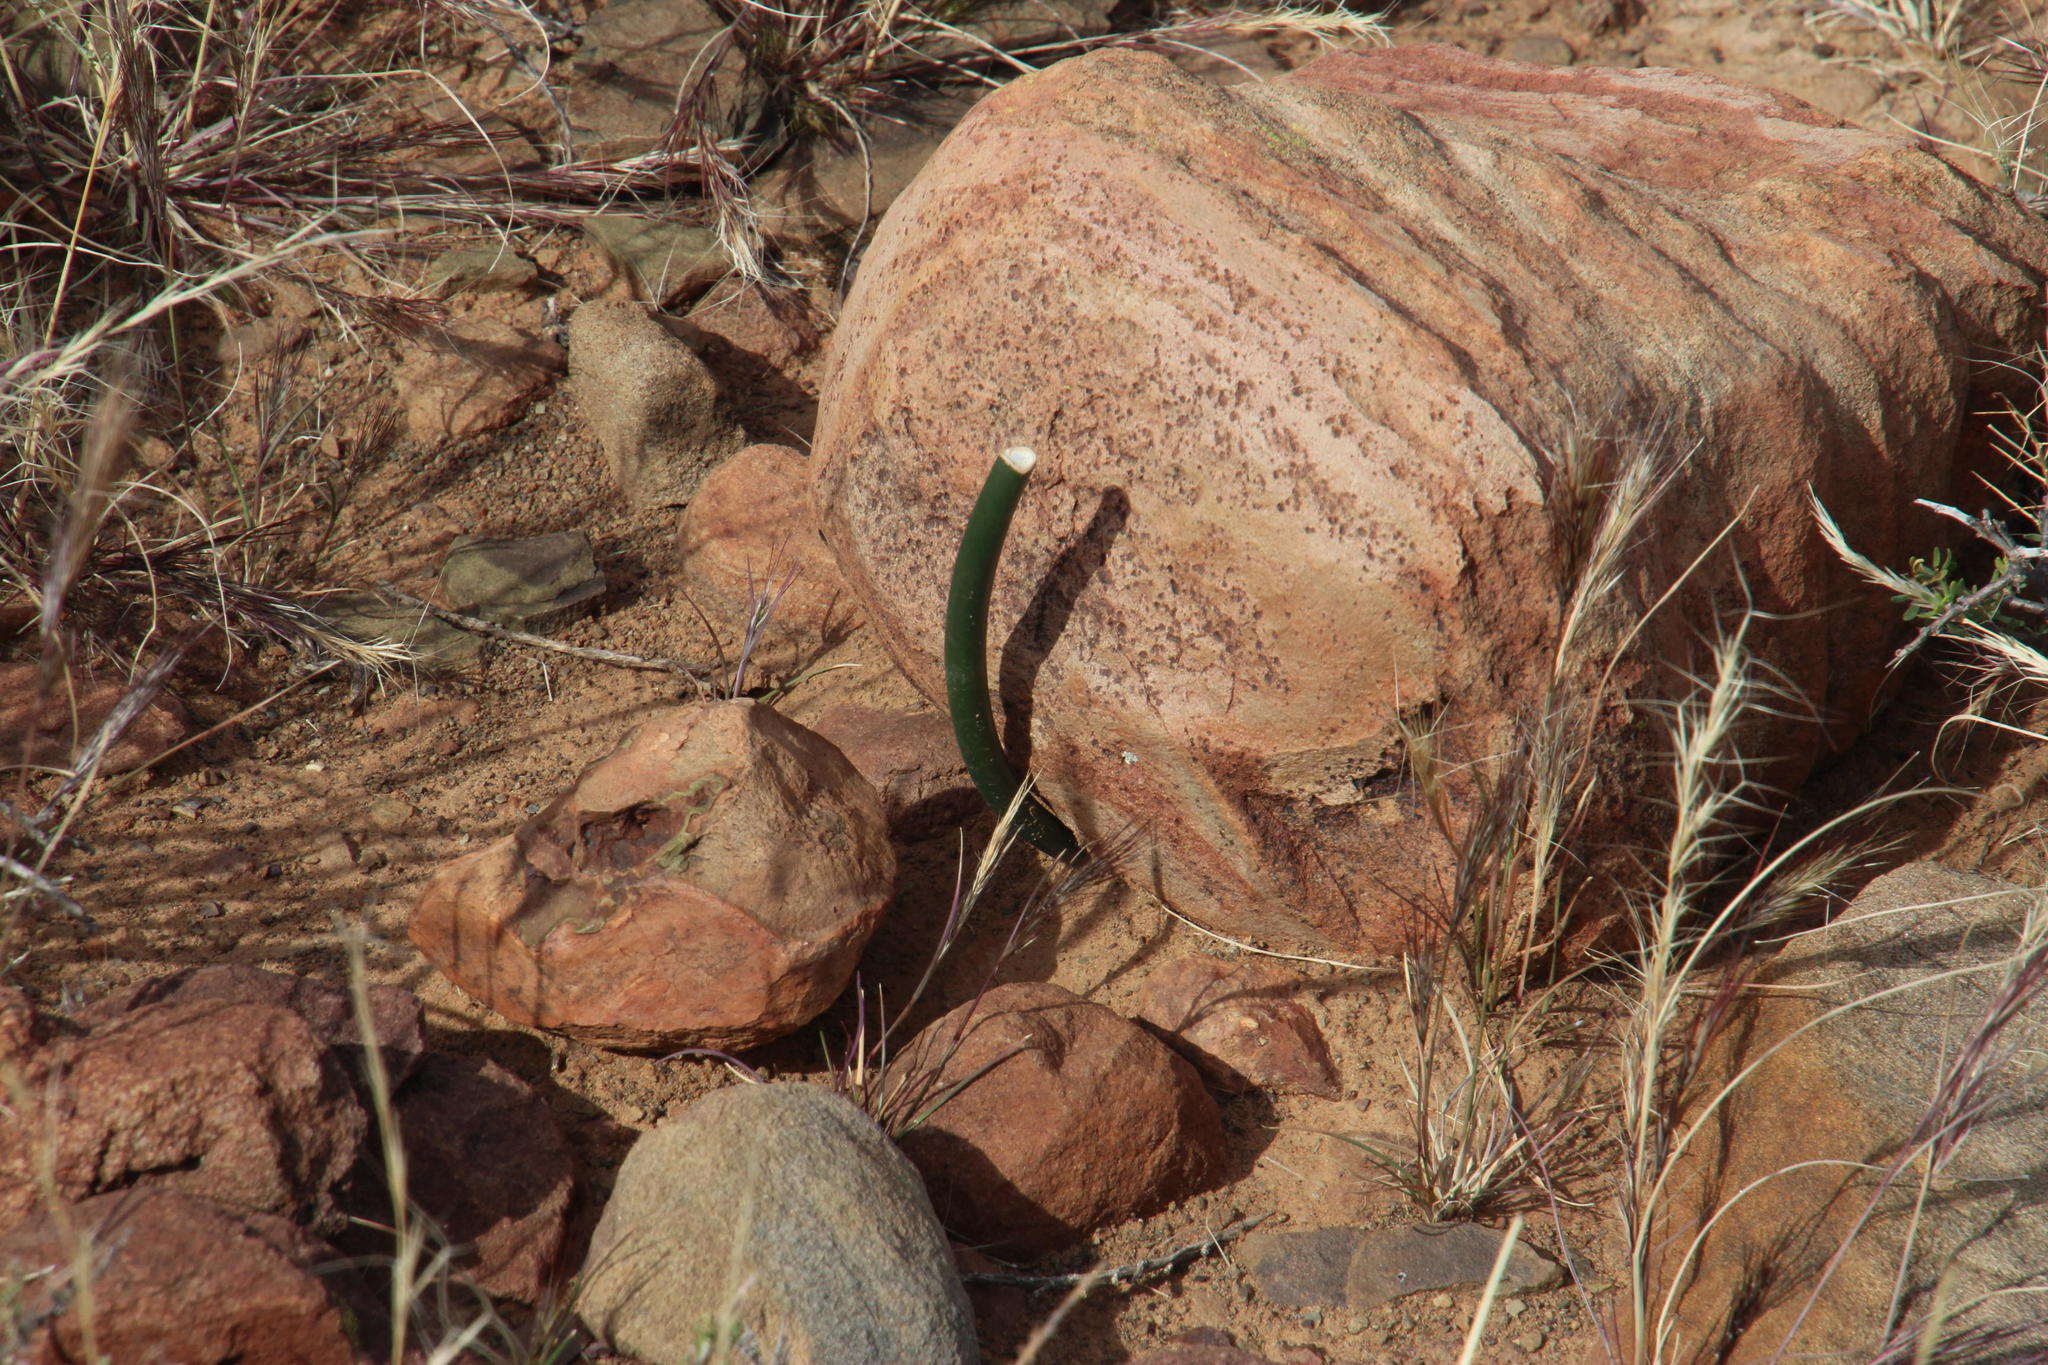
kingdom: Plantae
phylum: Tracheophyta
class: Liliopsida
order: Asparagales
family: Asparagaceae
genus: Drimia
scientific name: Drimia anomala
